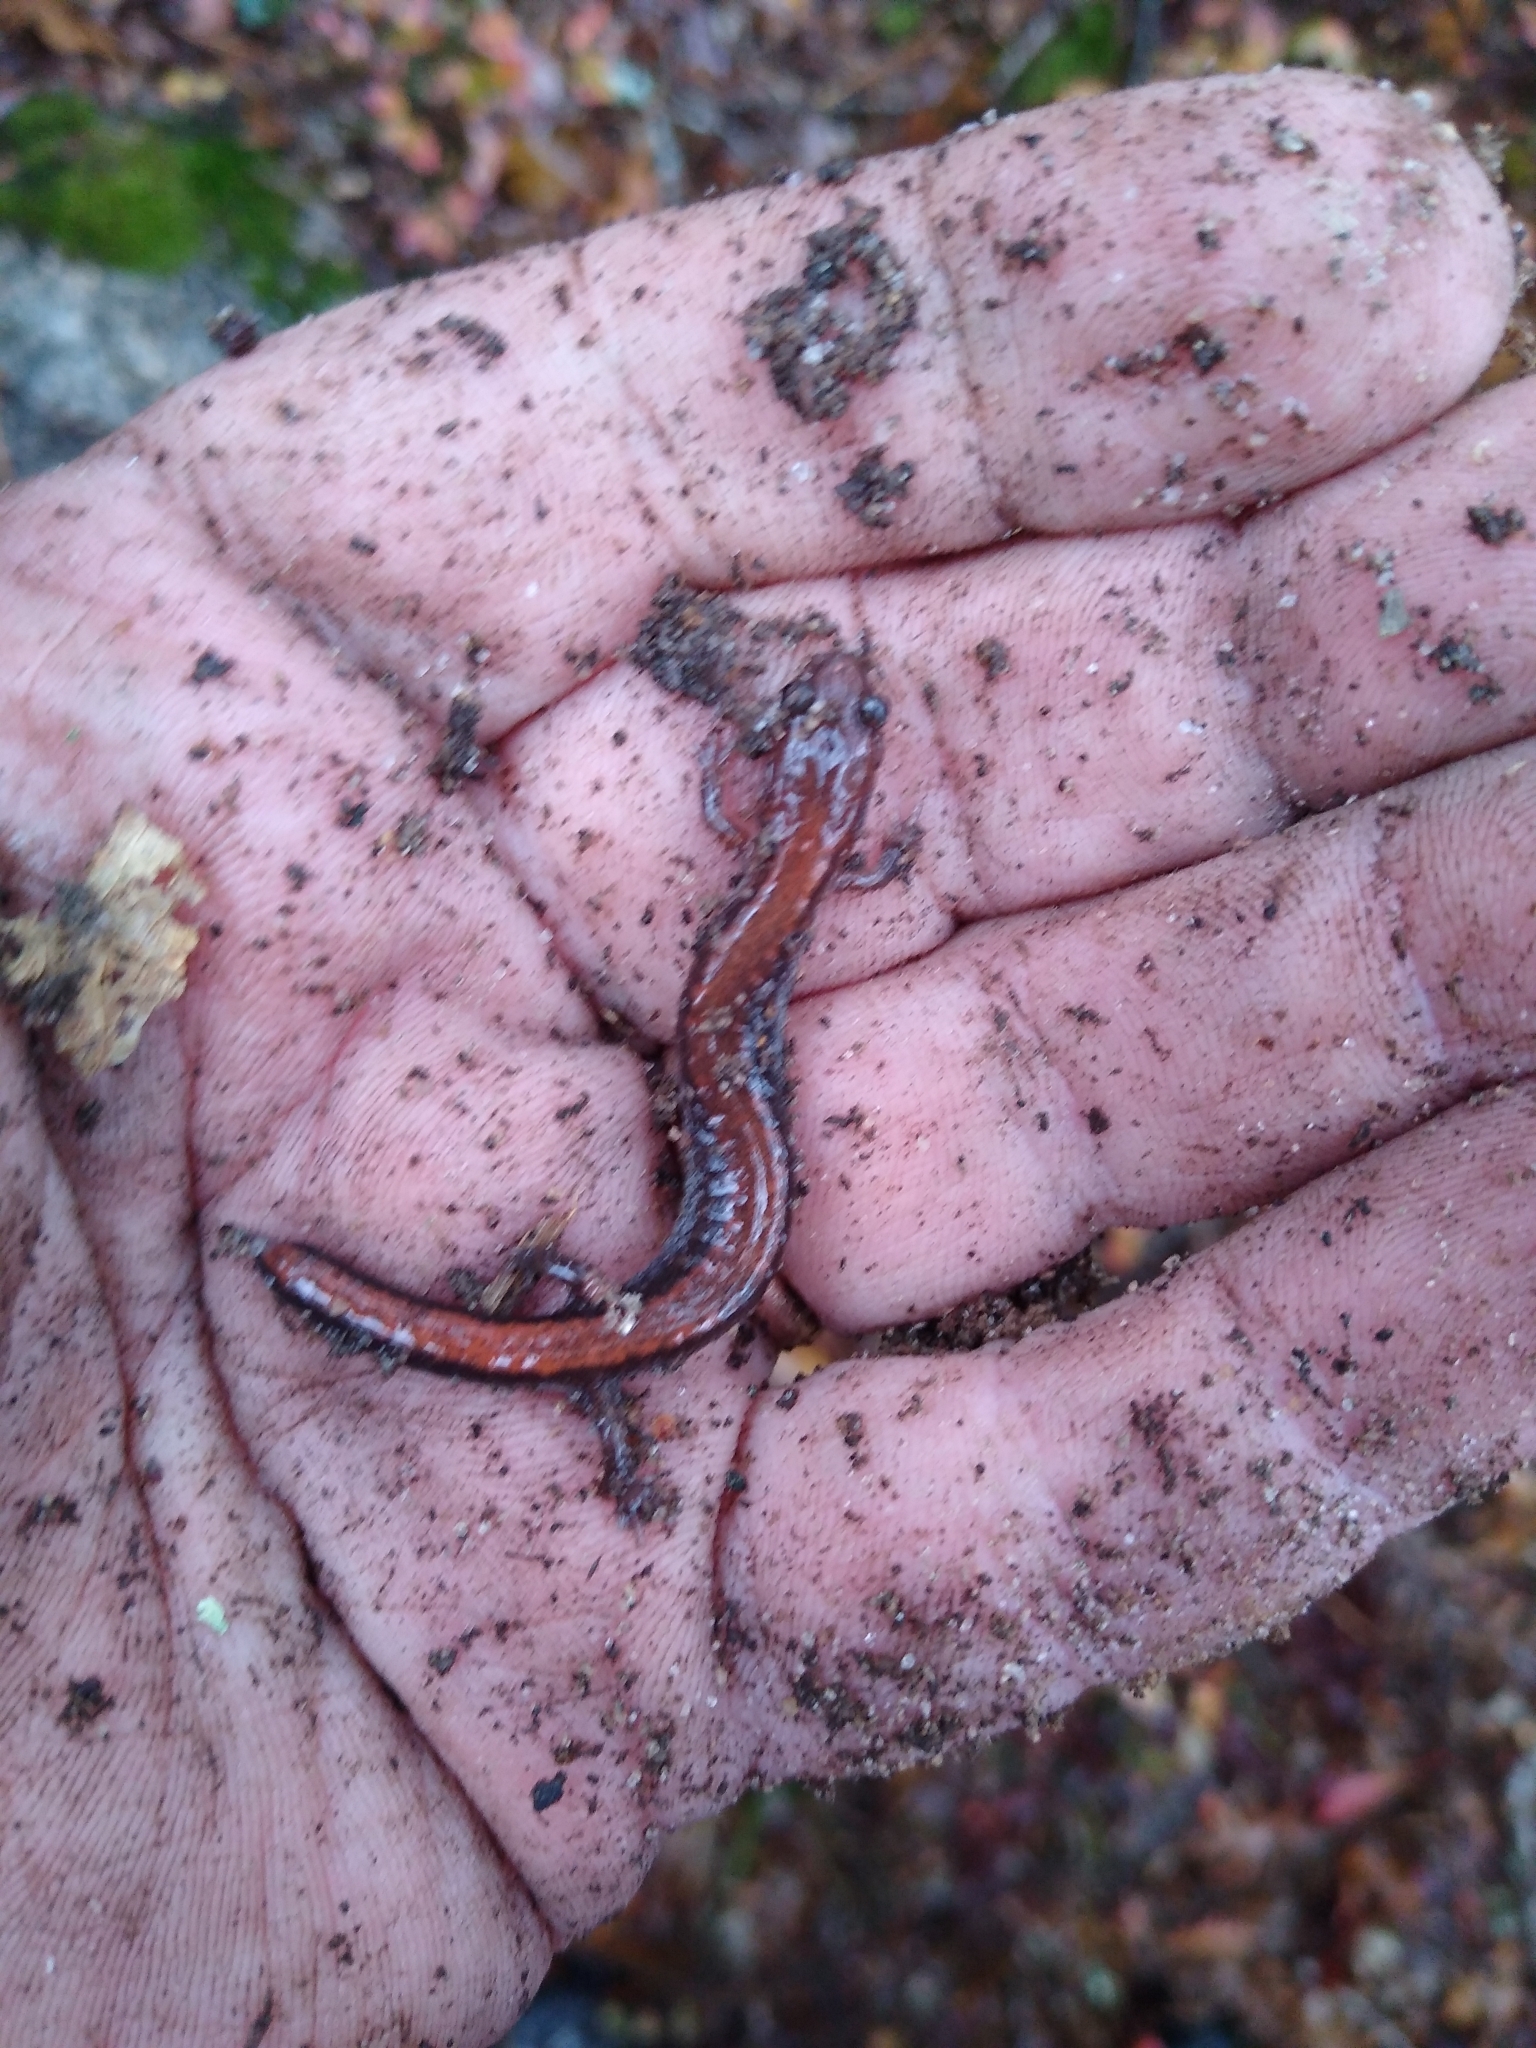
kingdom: Animalia
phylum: Chordata
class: Amphibia
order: Caudata
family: Plethodontidae
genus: Plethodon
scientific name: Plethodon cinereus
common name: Redback salamander
